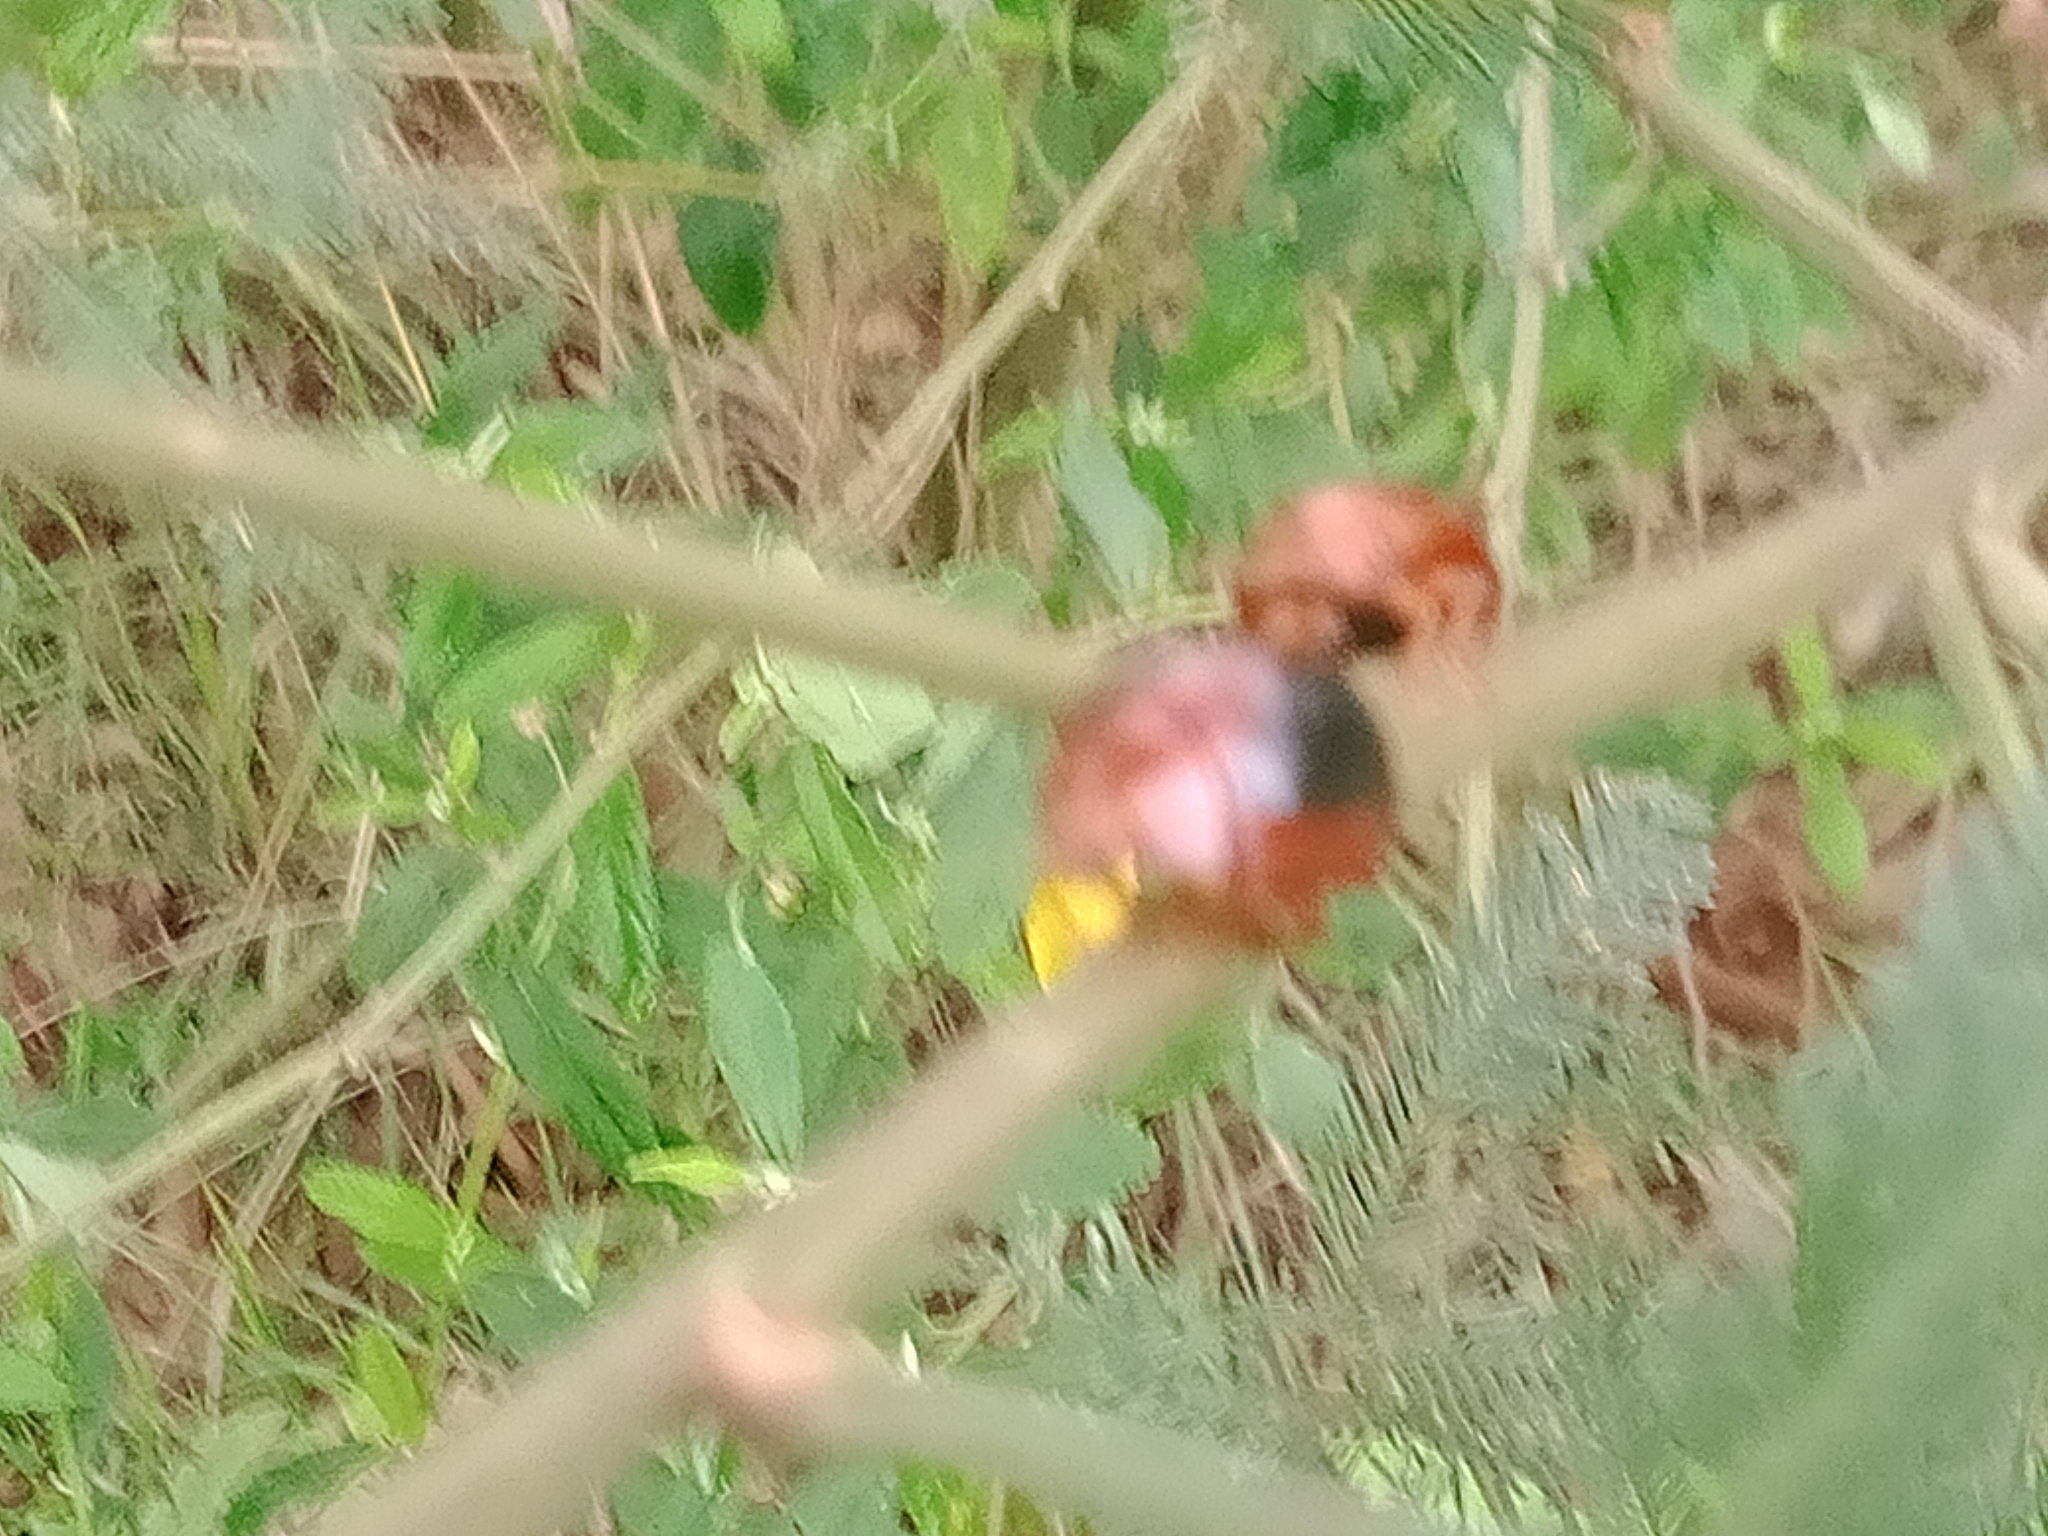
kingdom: Animalia
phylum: Arthropoda
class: Insecta
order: Coleoptera
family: Chrysomelidae
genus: Dicranosterna
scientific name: Dicranosterna
